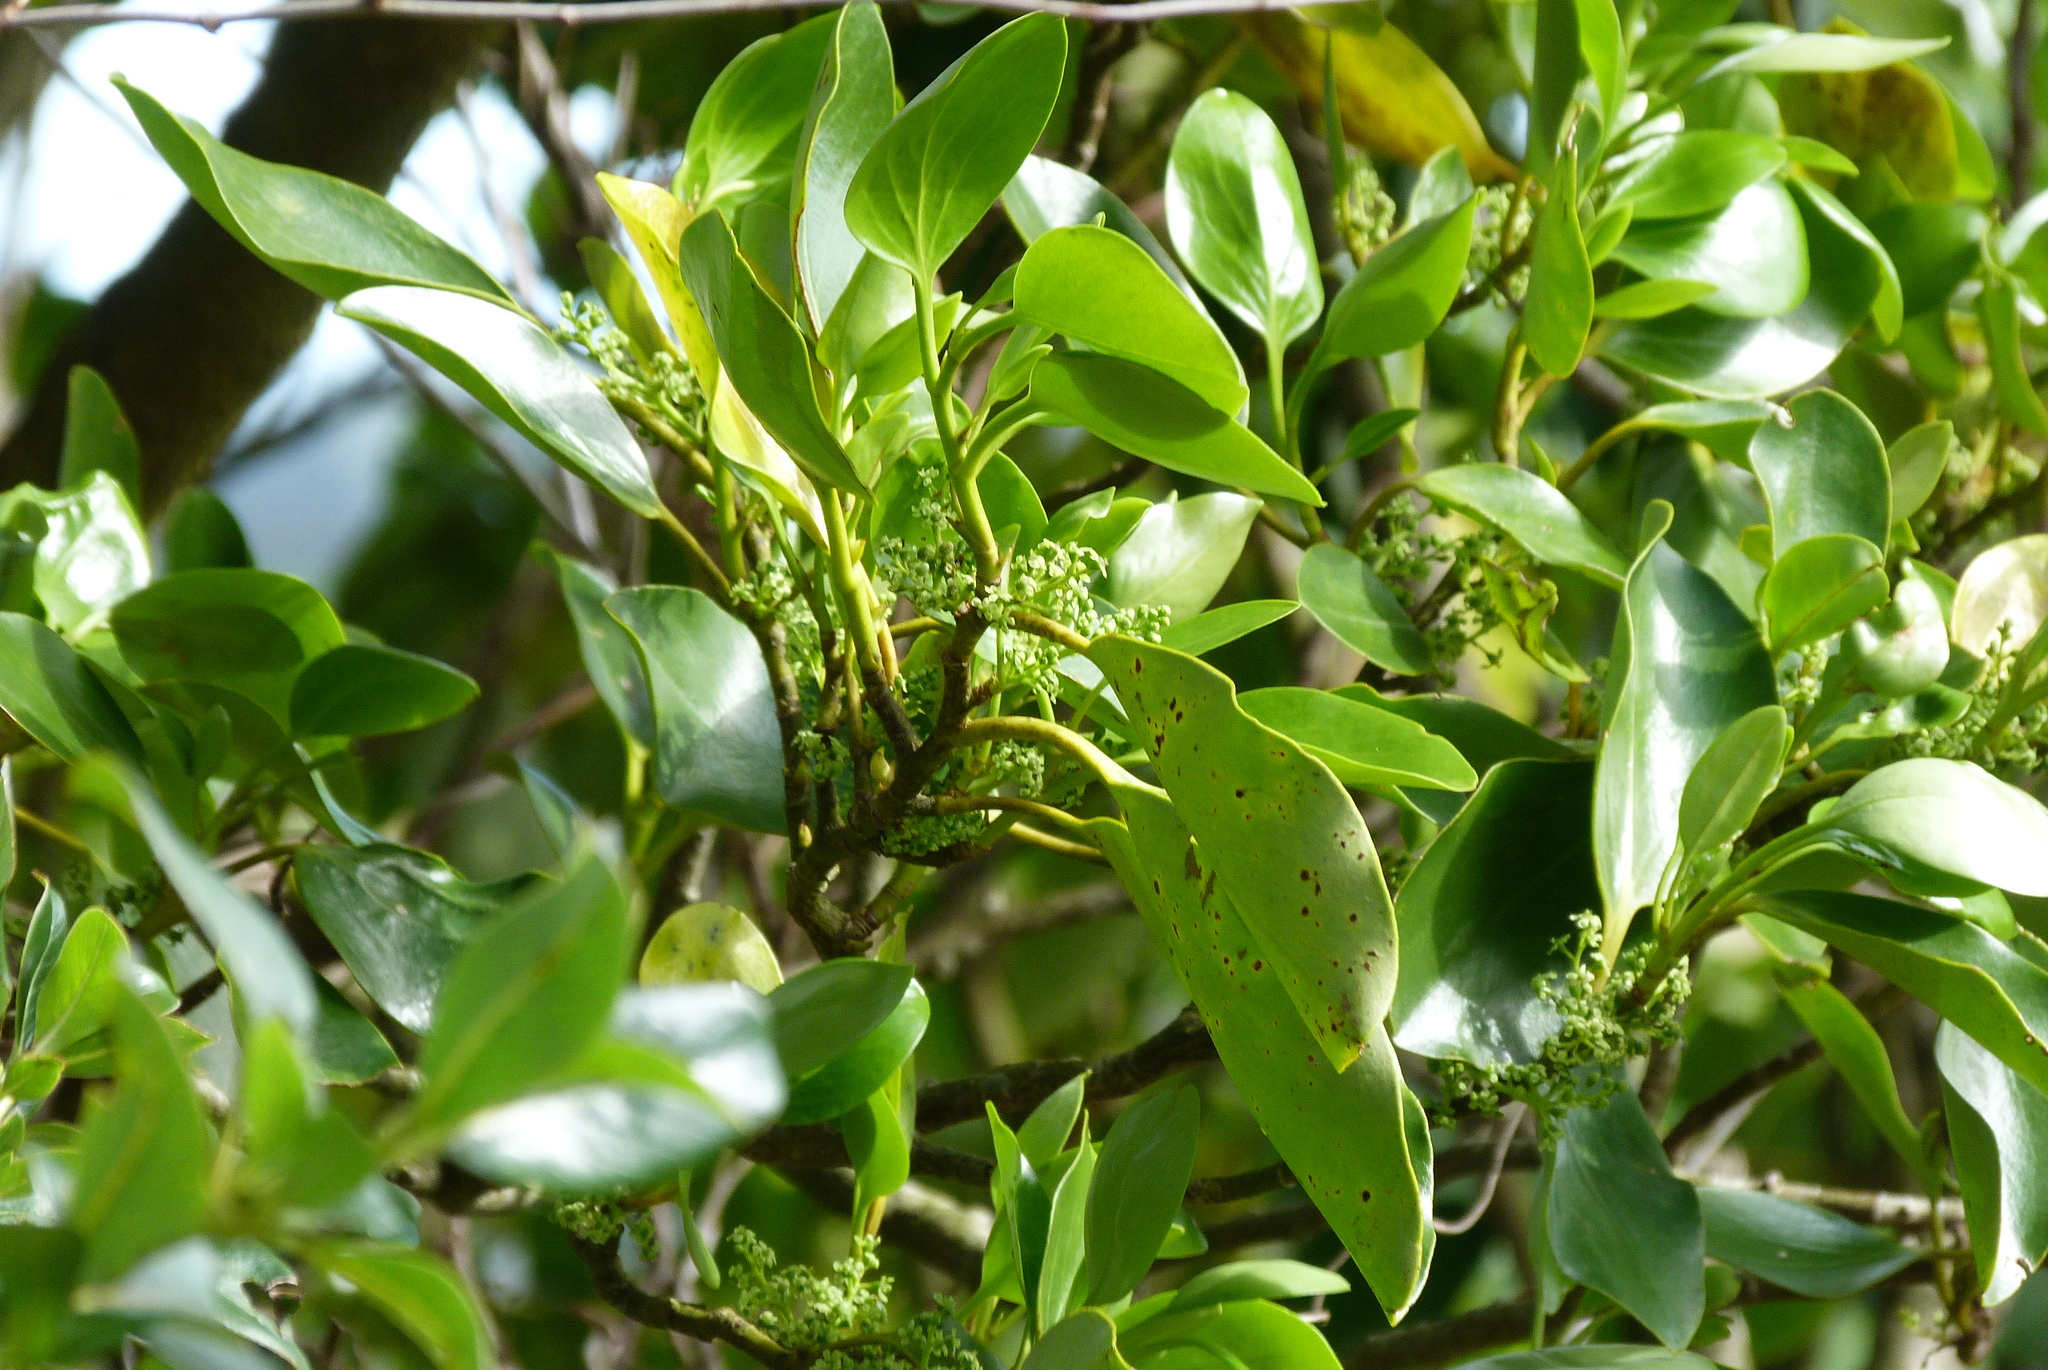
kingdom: Plantae
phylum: Tracheophyta
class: Magnoliopsida
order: Apiales
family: Griseliniaceae
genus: Griselinia
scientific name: Griselinia littoralis
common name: New zealand broadleaf
